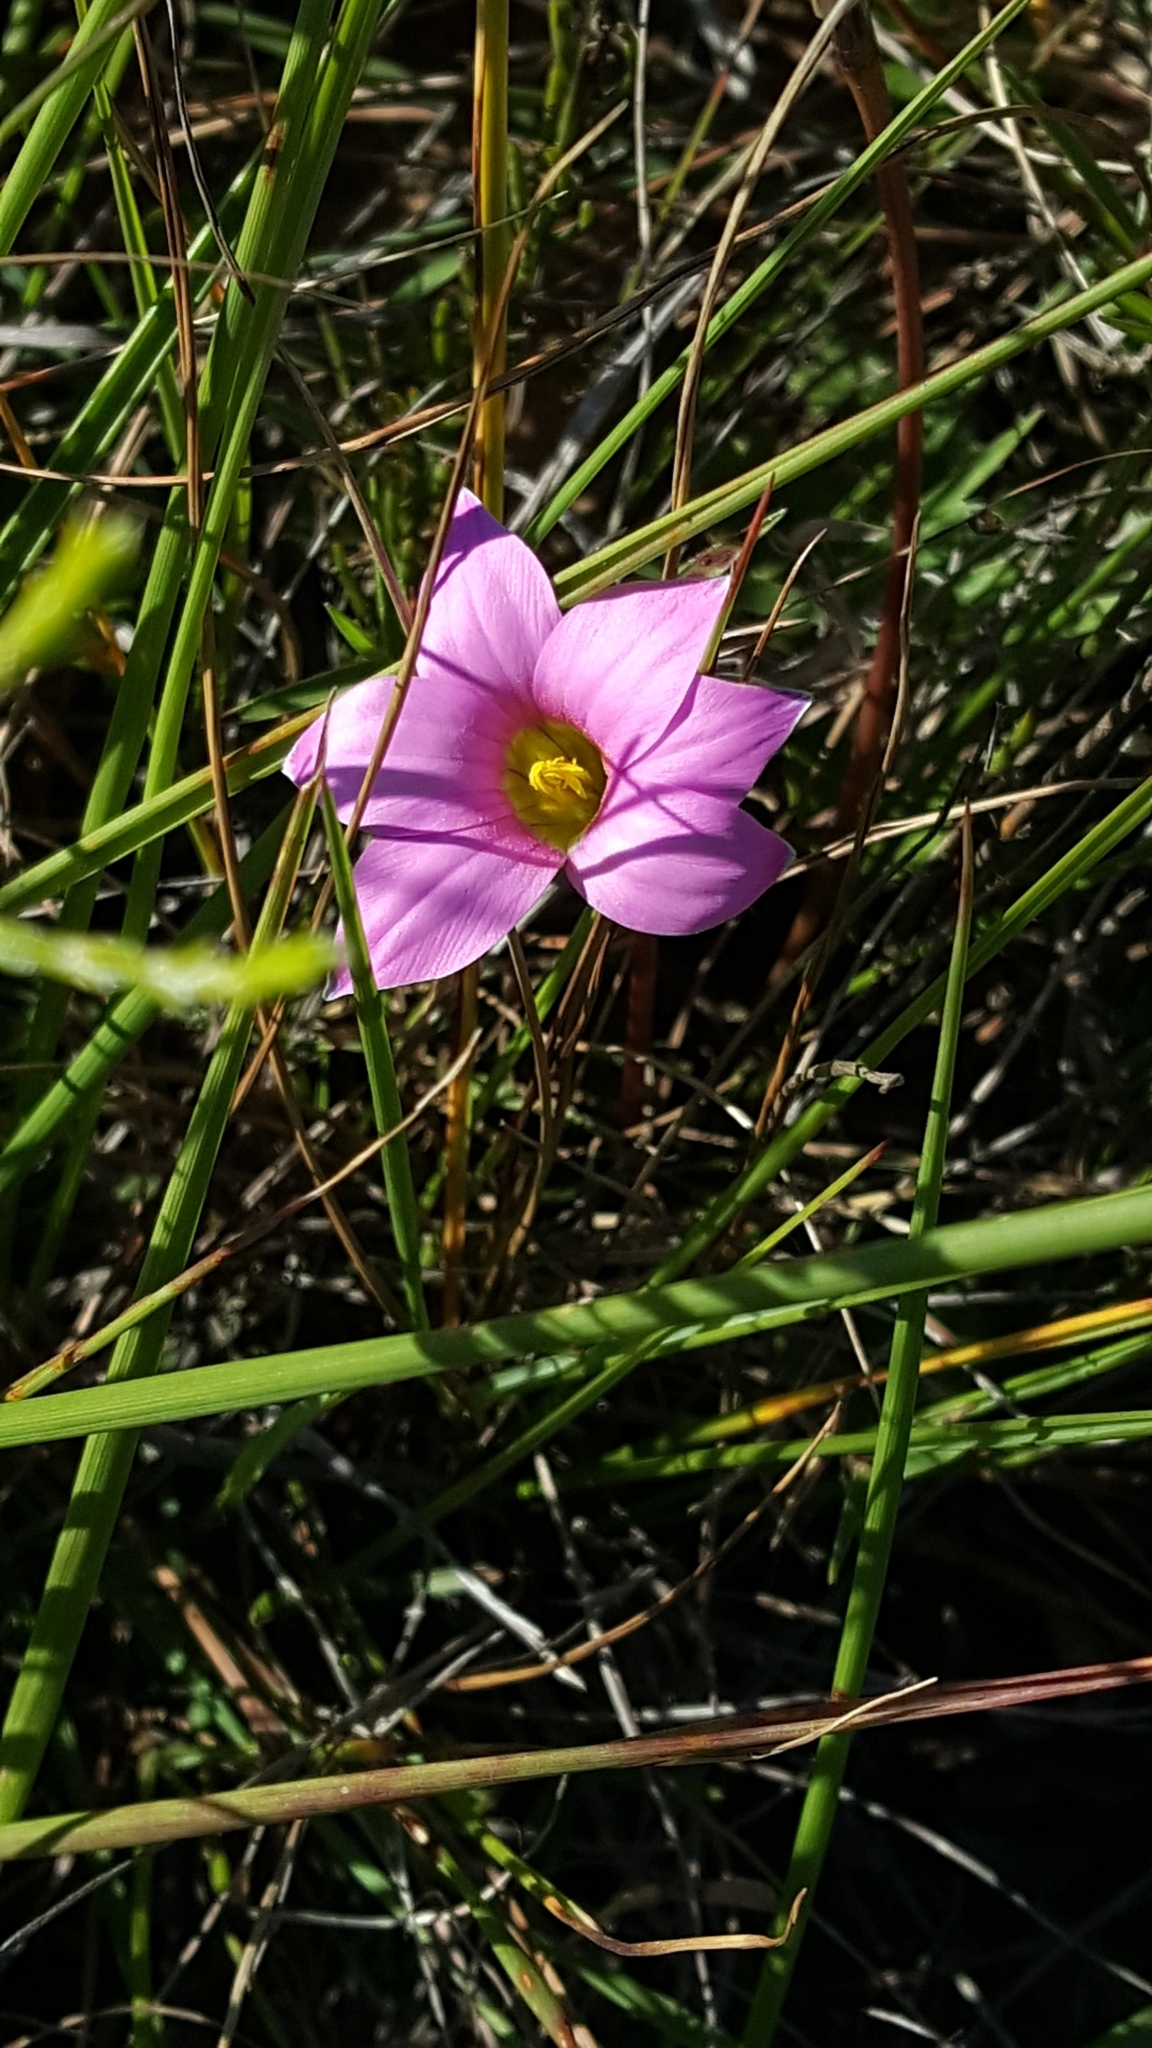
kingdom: Plantae
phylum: Tracheophyta
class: Liliopsida
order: Asparagales
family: Iridaceae
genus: Romulea
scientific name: Romulea autumnalis
